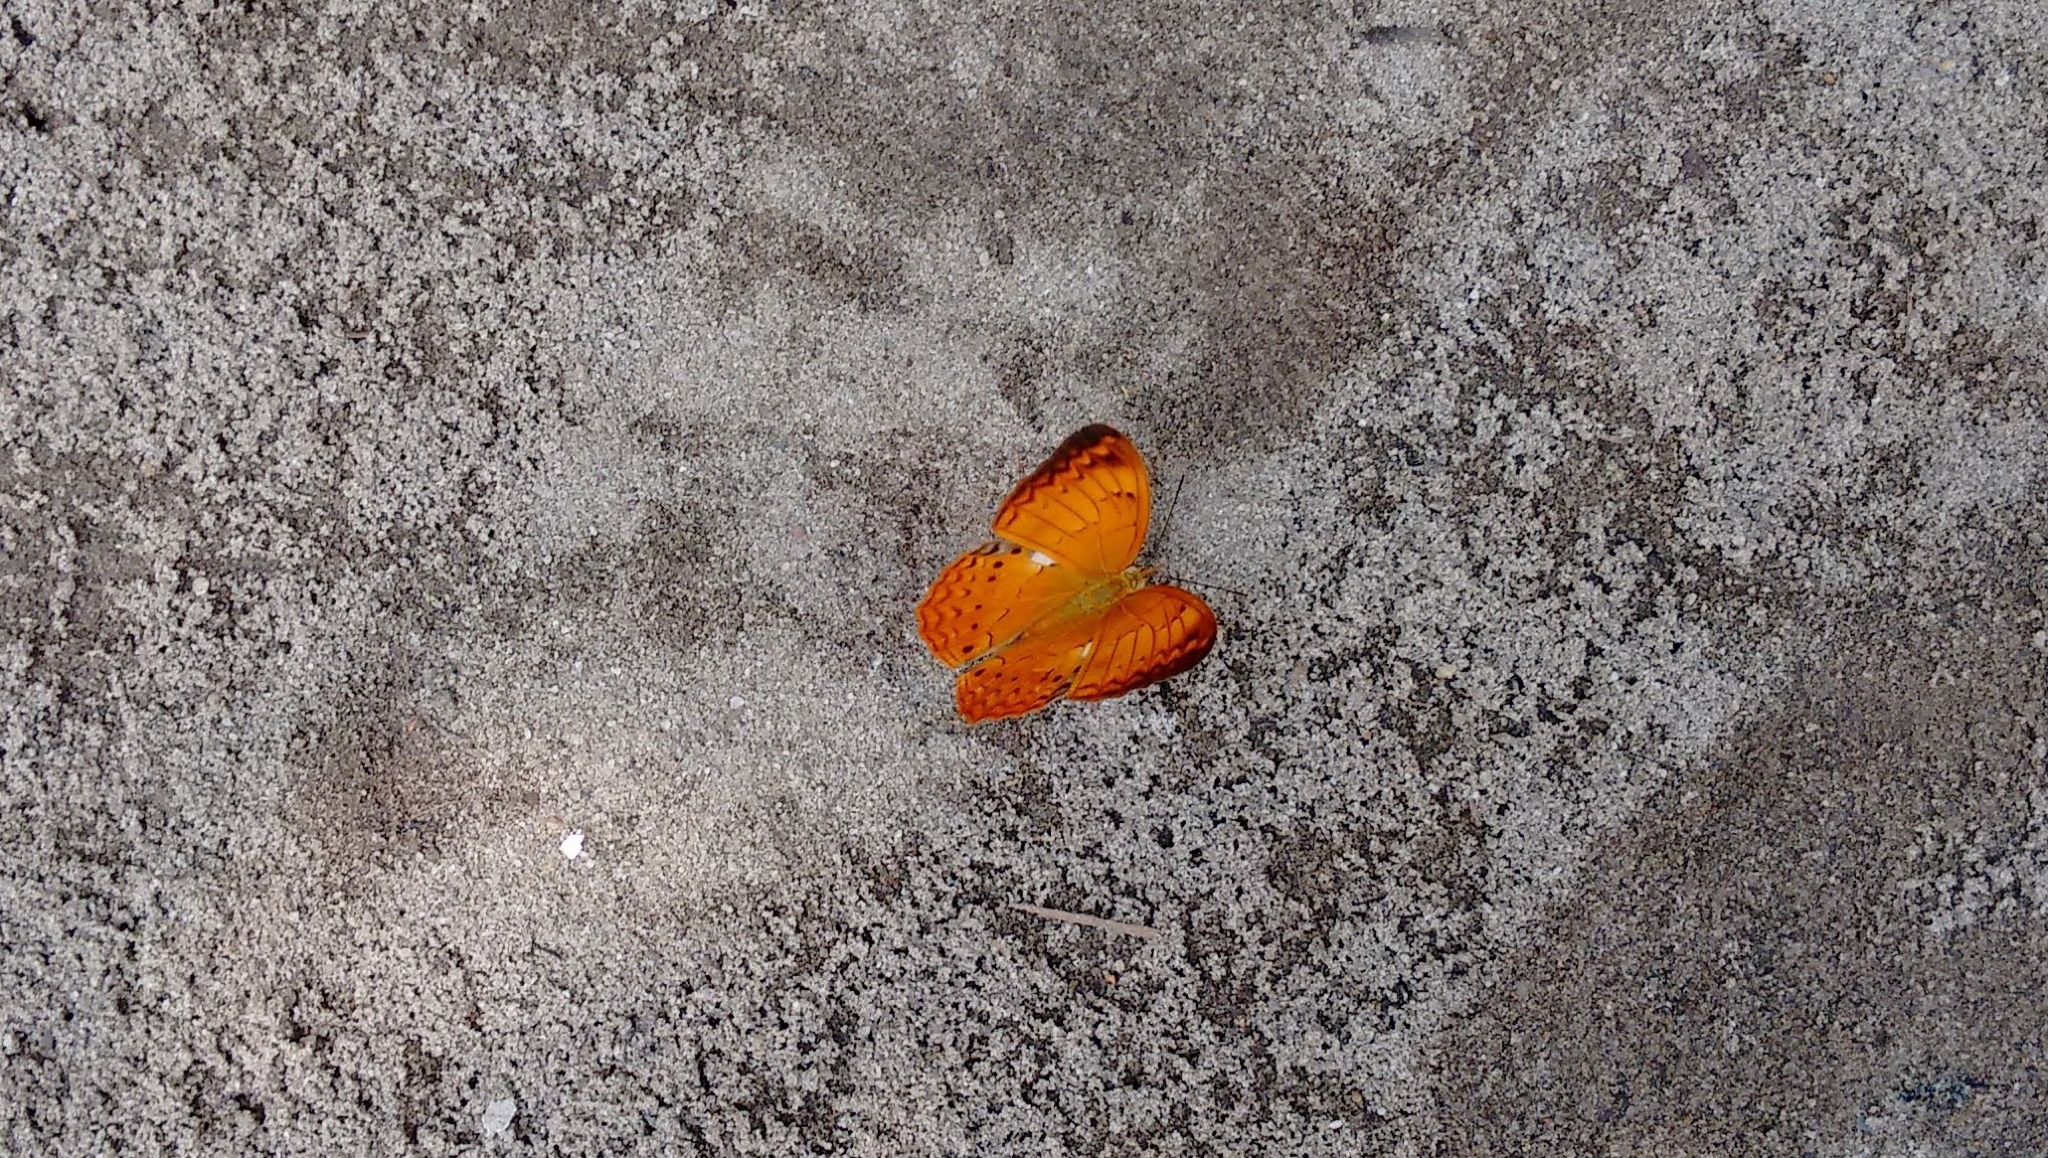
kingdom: Animalia
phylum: Arthropoda
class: Insecta
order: Lepidoptera
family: Nymphalidae
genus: Cirrochroa
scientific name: Cirrochroa thais
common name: Tamil yeoman
